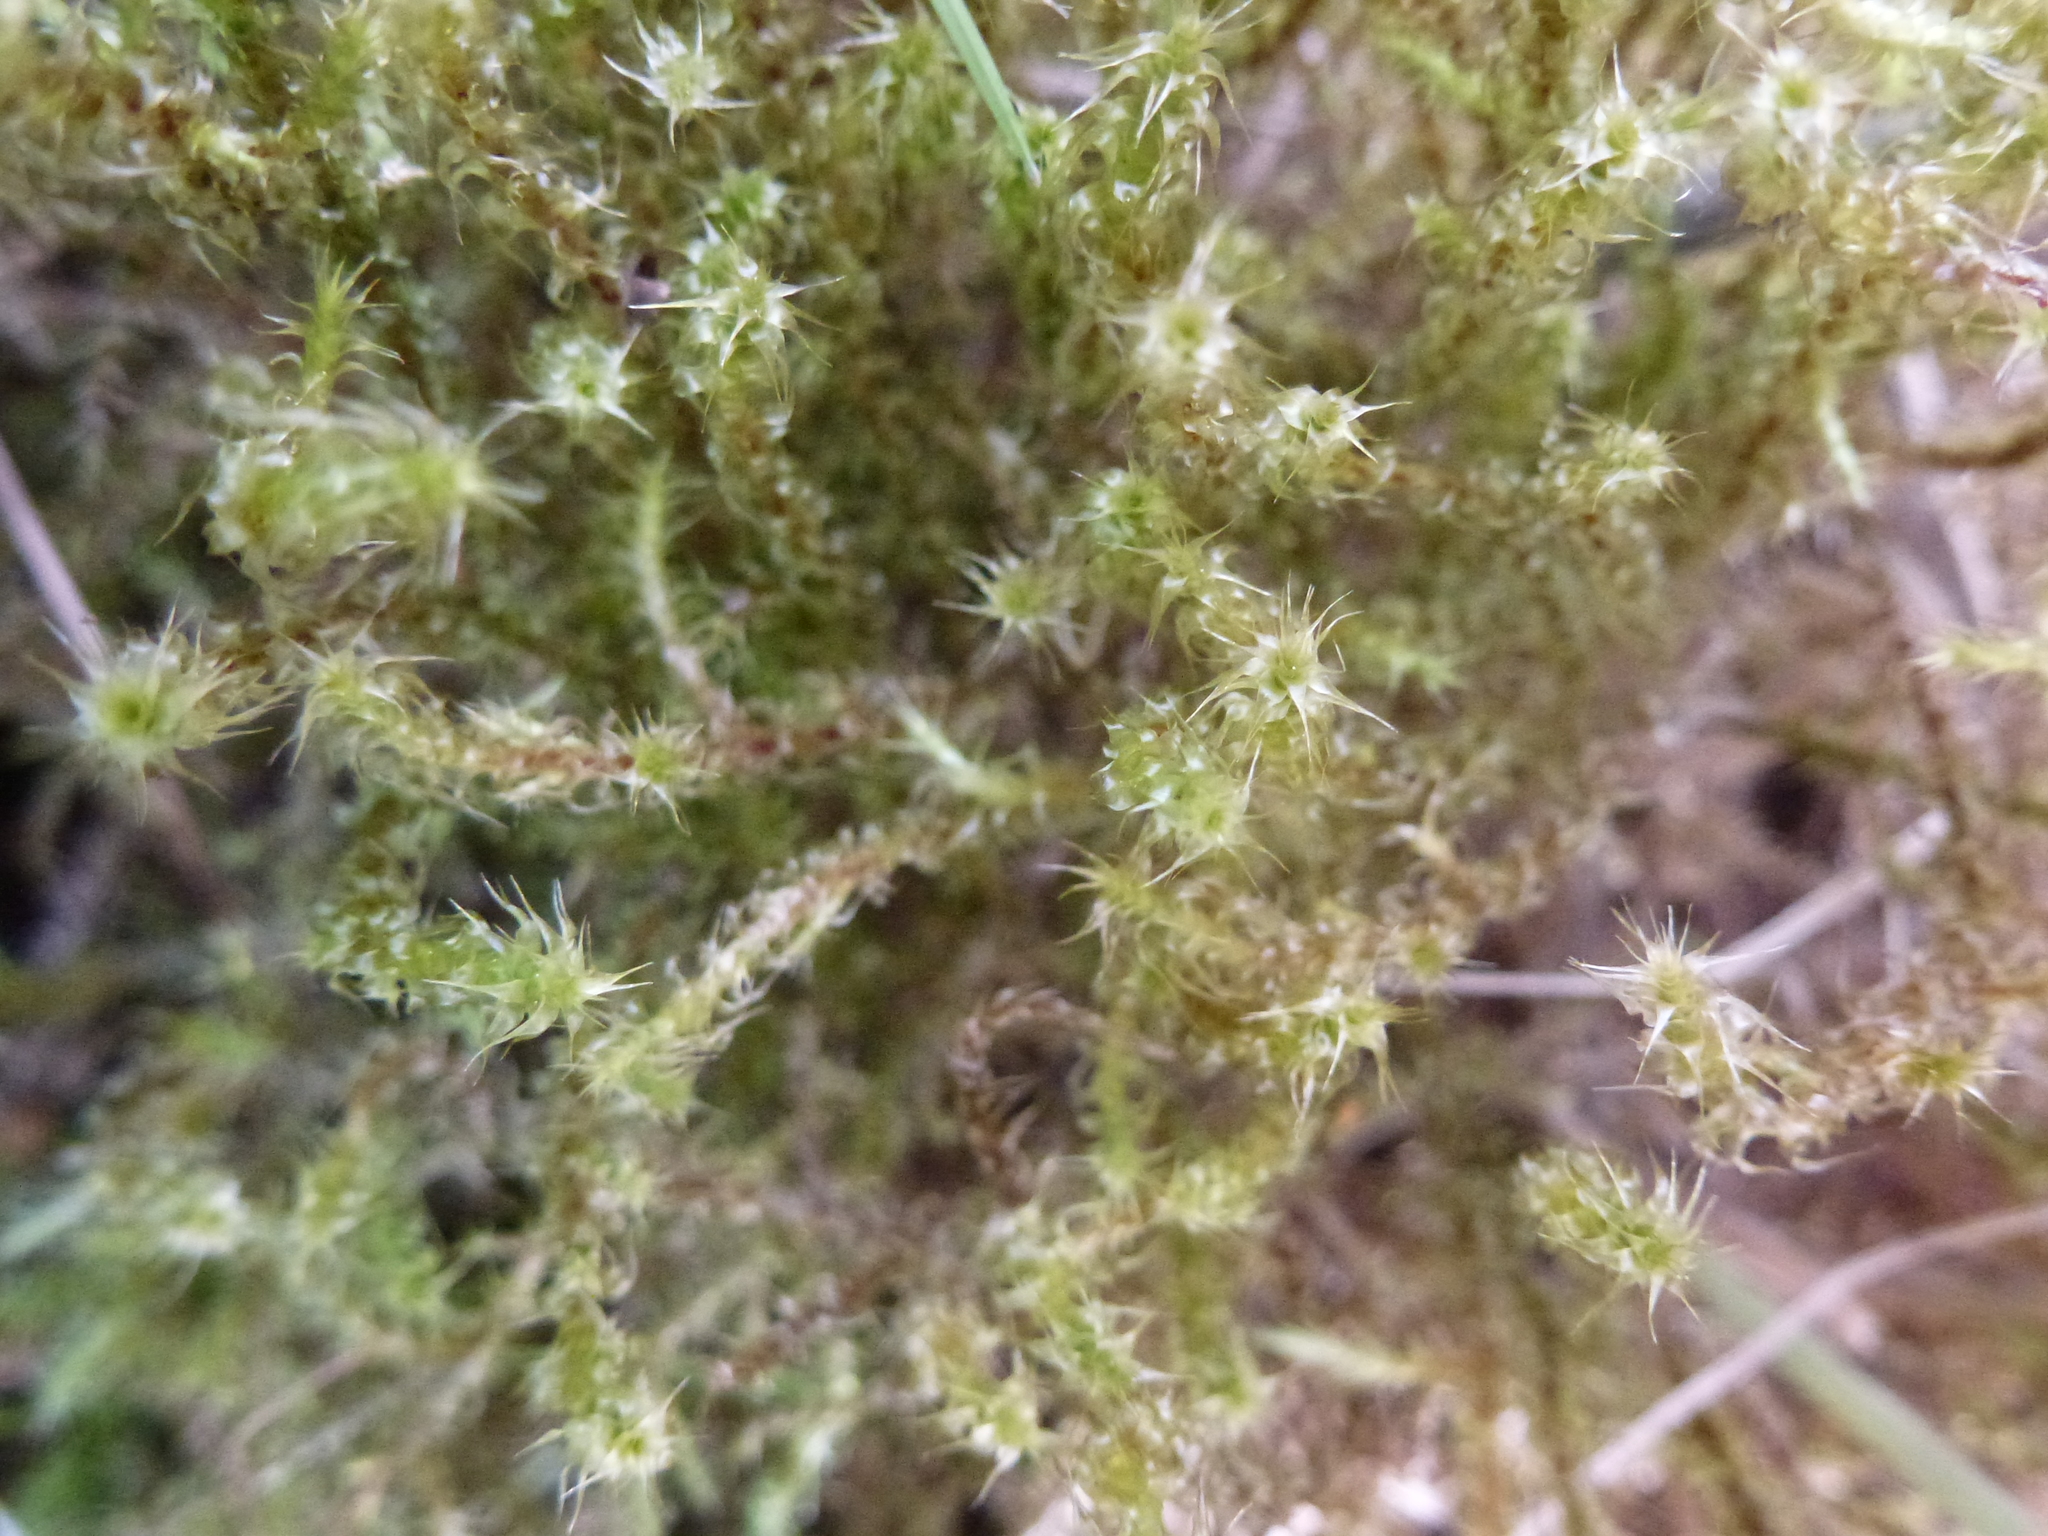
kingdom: Plantae
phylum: Bryophyta
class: Bryopsida
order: Hypnales
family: Hylocomiaceae
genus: Rhytidiadelphus
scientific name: Rhytidiadelphus squarrosus
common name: Springy turf-moss
